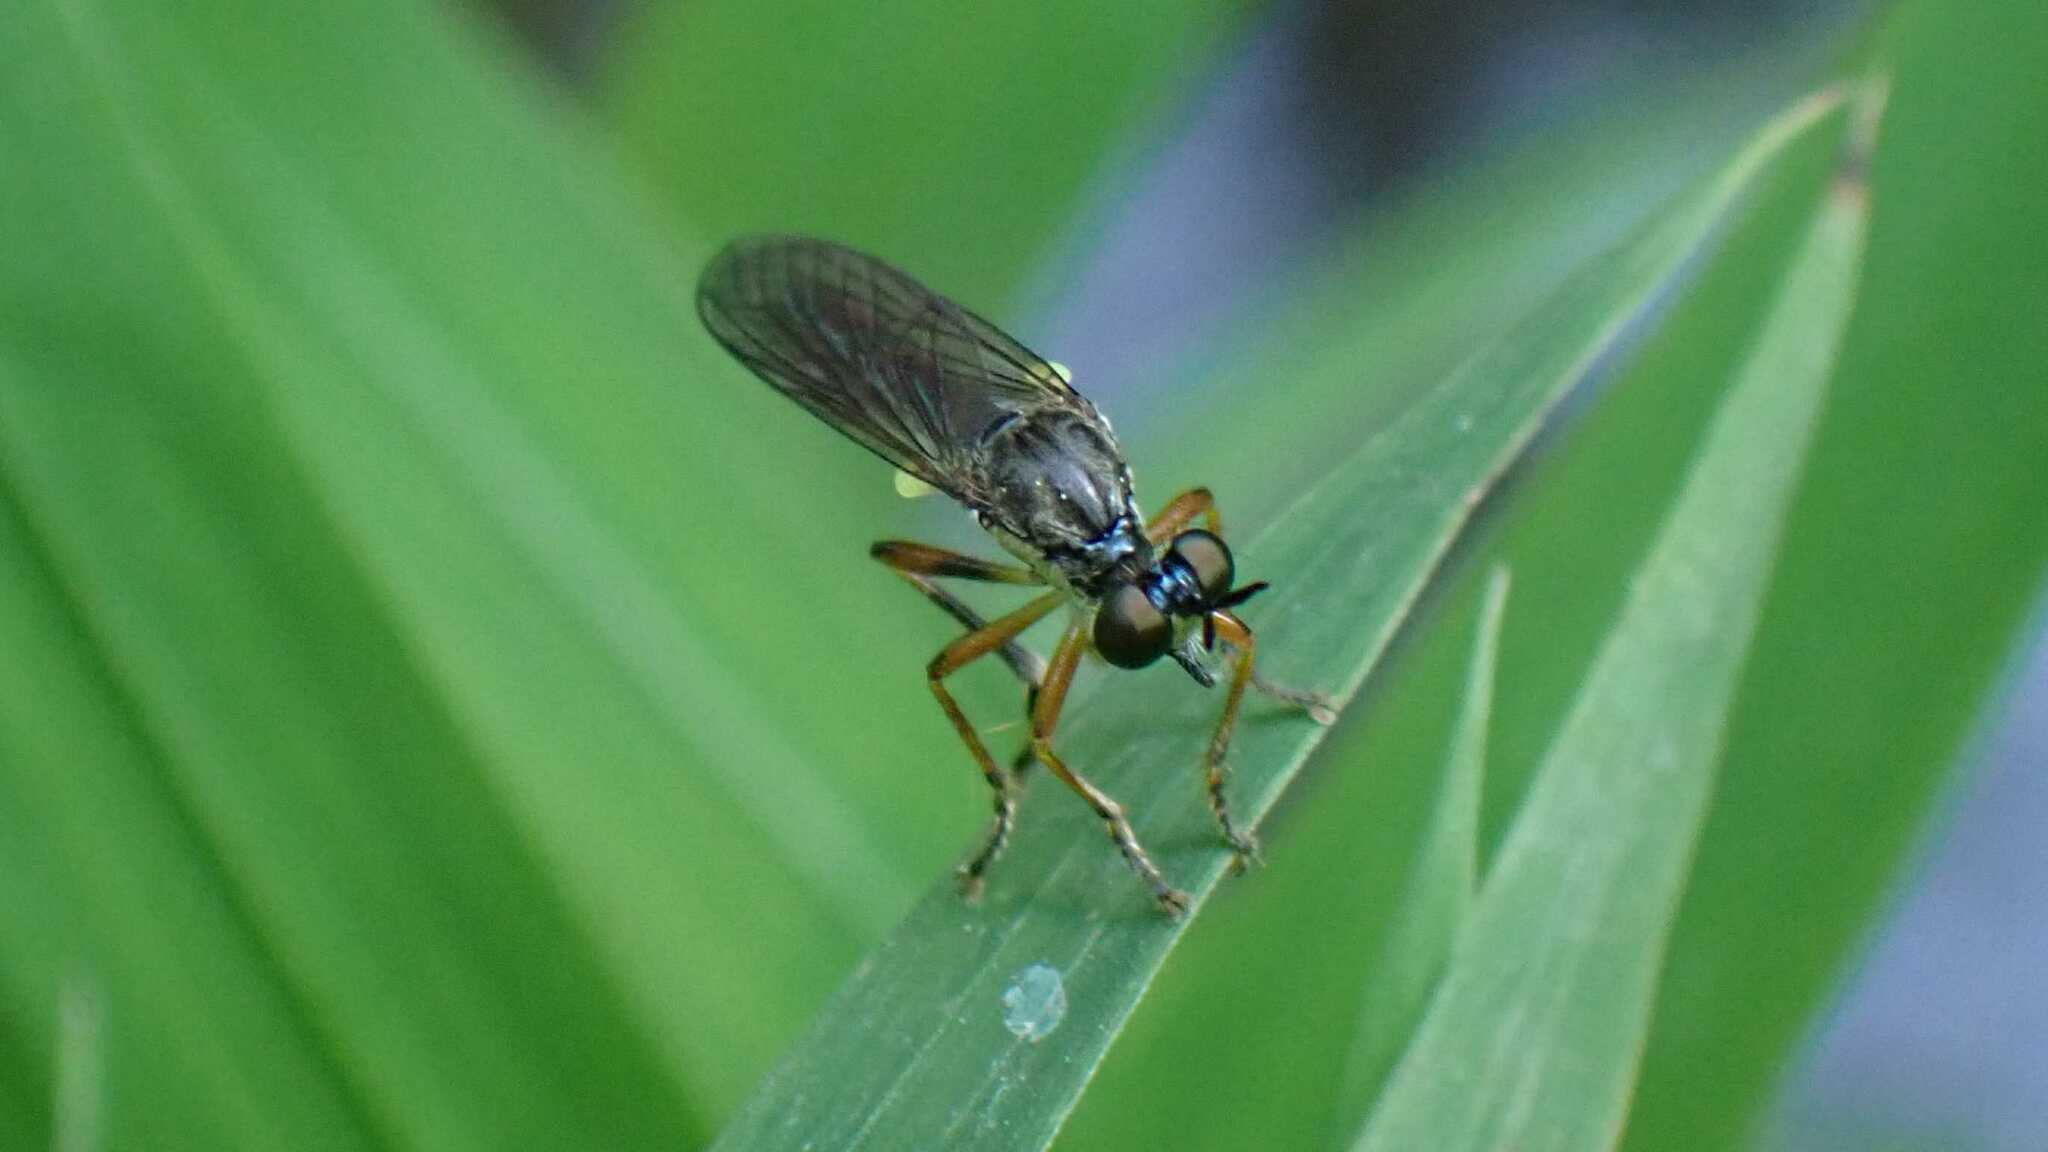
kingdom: Animalia
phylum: Arthropoda
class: Insecta
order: Diptera
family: Asilidae
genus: Dioctria
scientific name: Dioctria hyalipennis
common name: Stripe-legged robberfly
